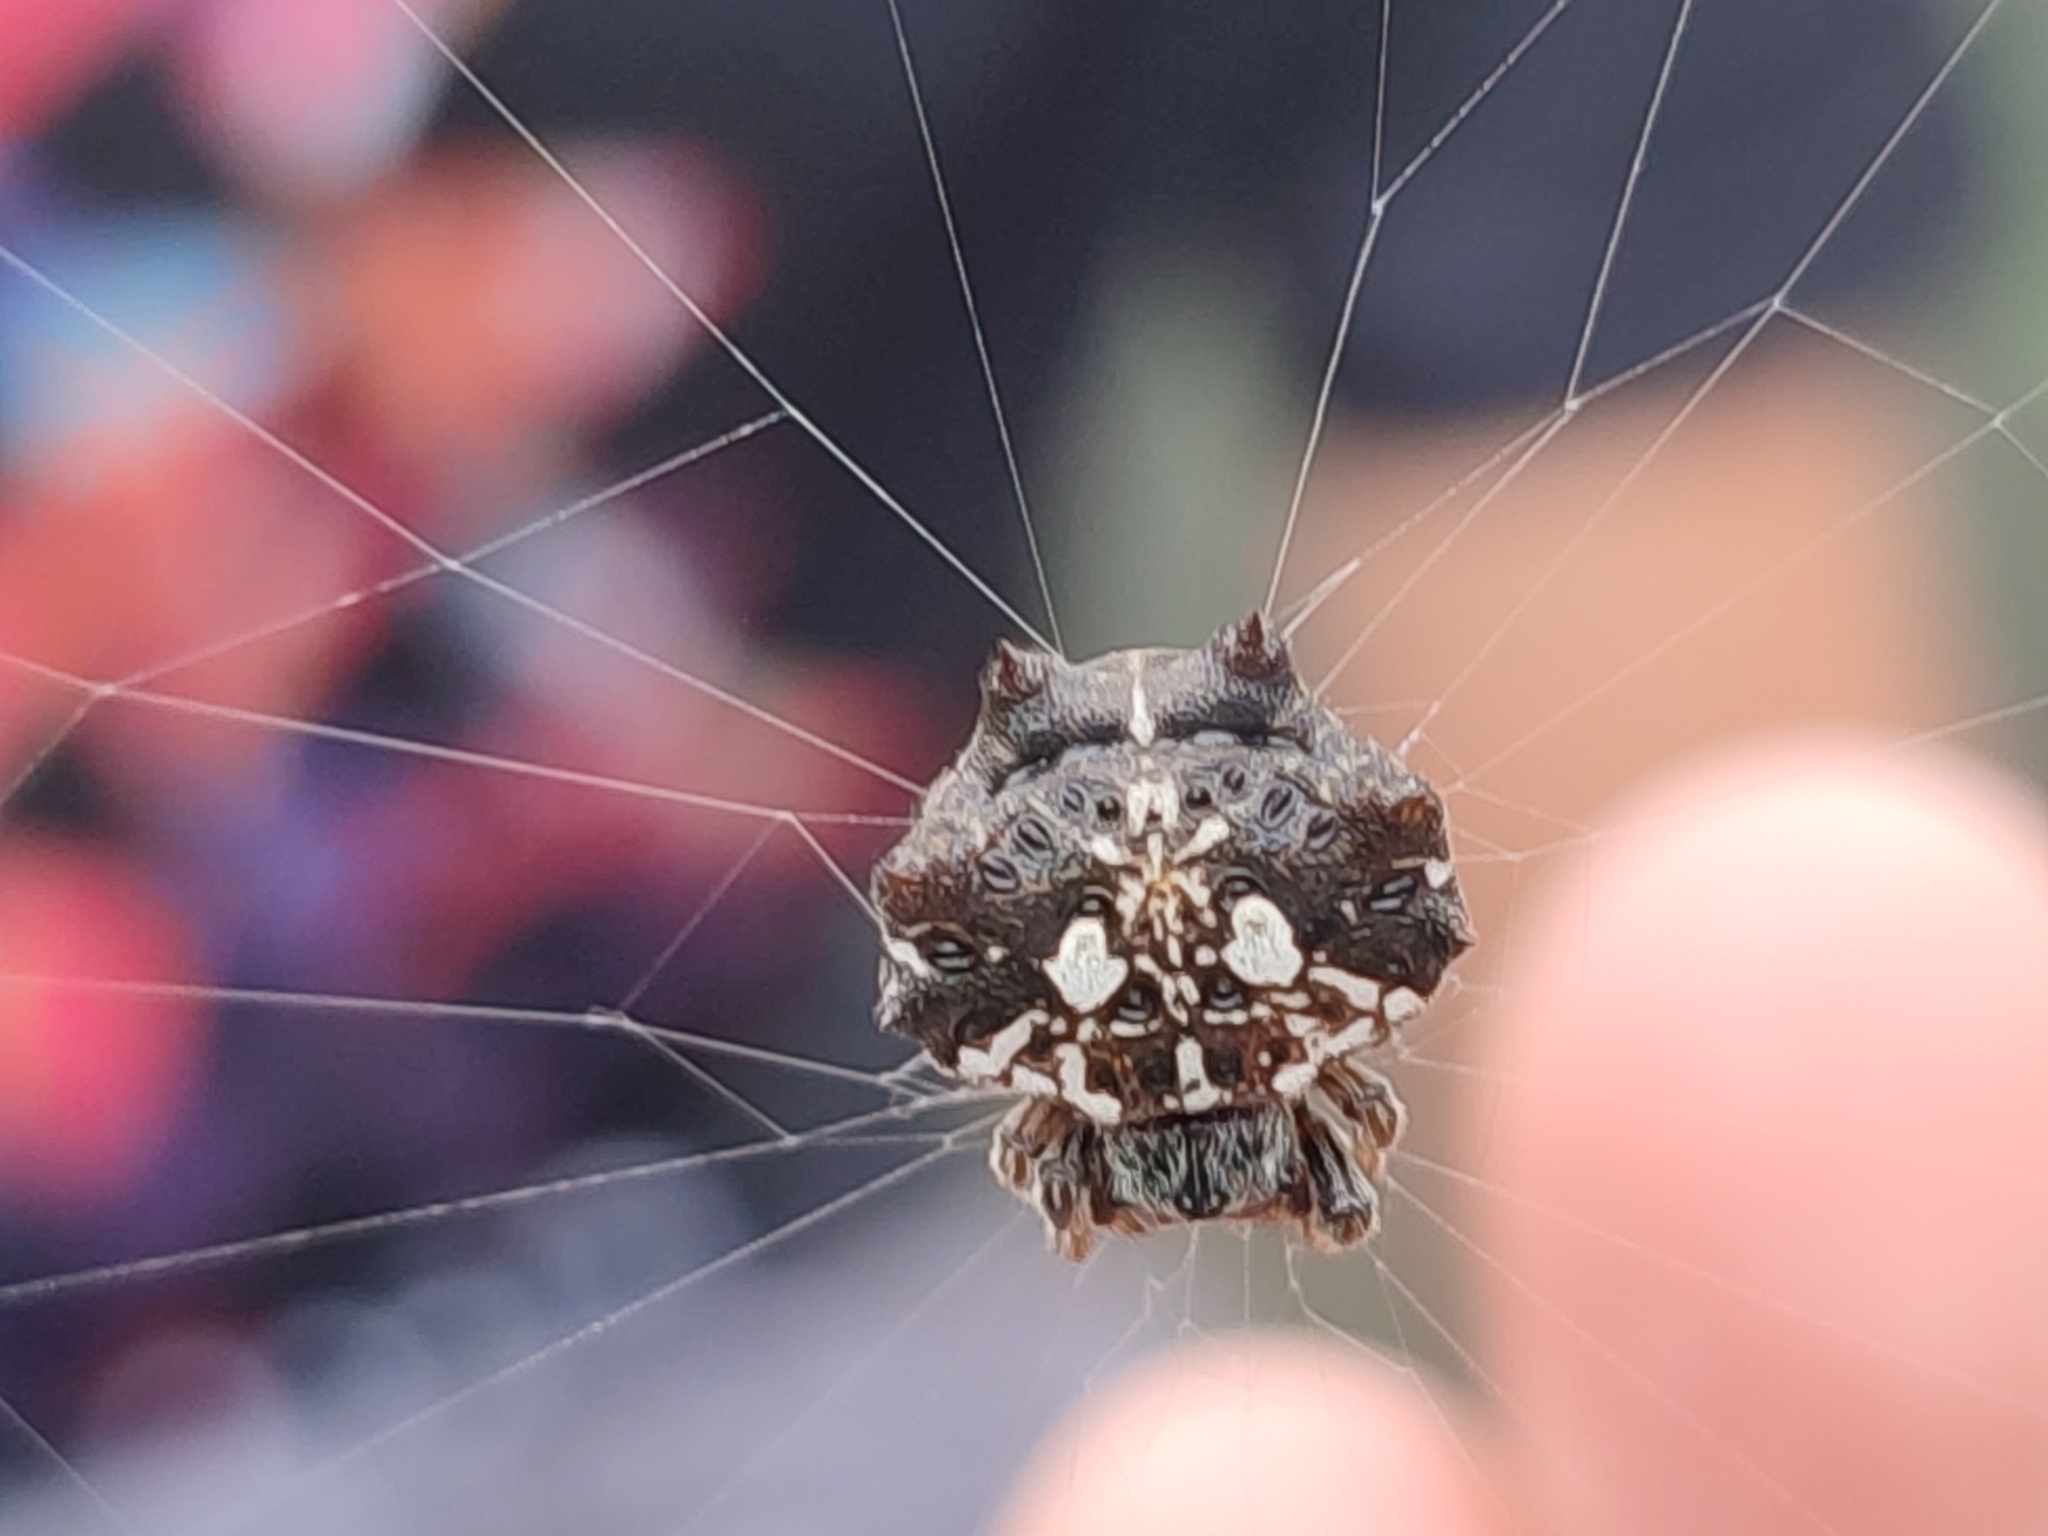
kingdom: Animalia
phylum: Arthropoda
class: Arachnida
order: Araneae
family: Araneidae
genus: Thelacantha
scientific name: Thelacantha brevispina
